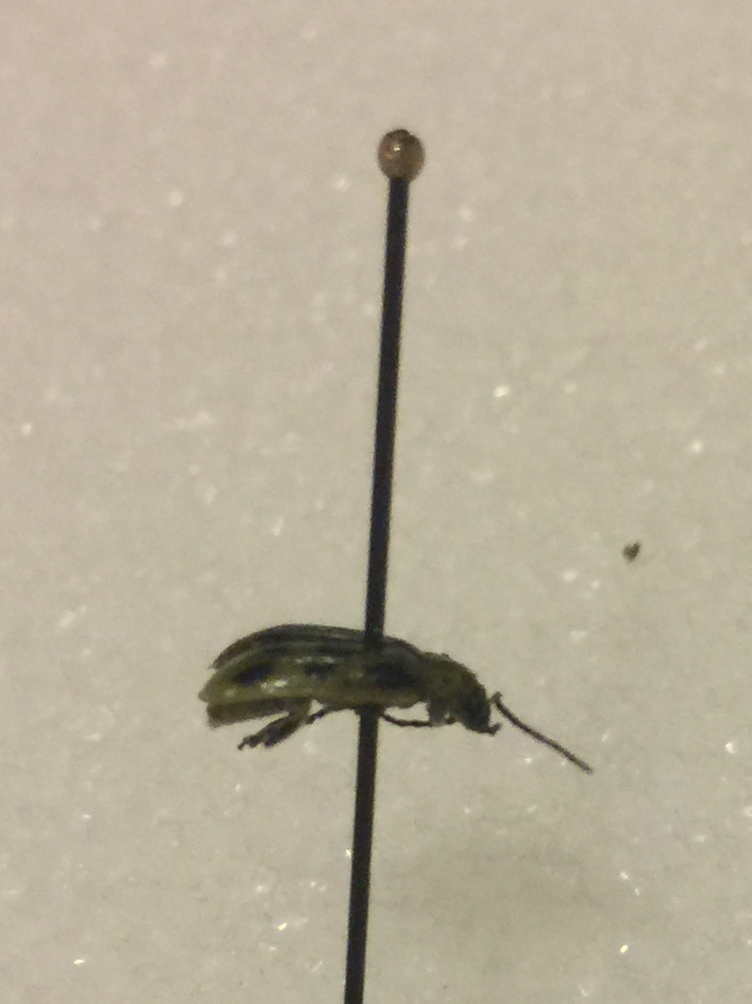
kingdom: Animalia
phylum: Arthropoda
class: Insecta
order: Coleoptera
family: Chrysomelidae
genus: Diabrotica
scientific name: Diabrotica undecimpunctata
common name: Spotted cucumber beetle
